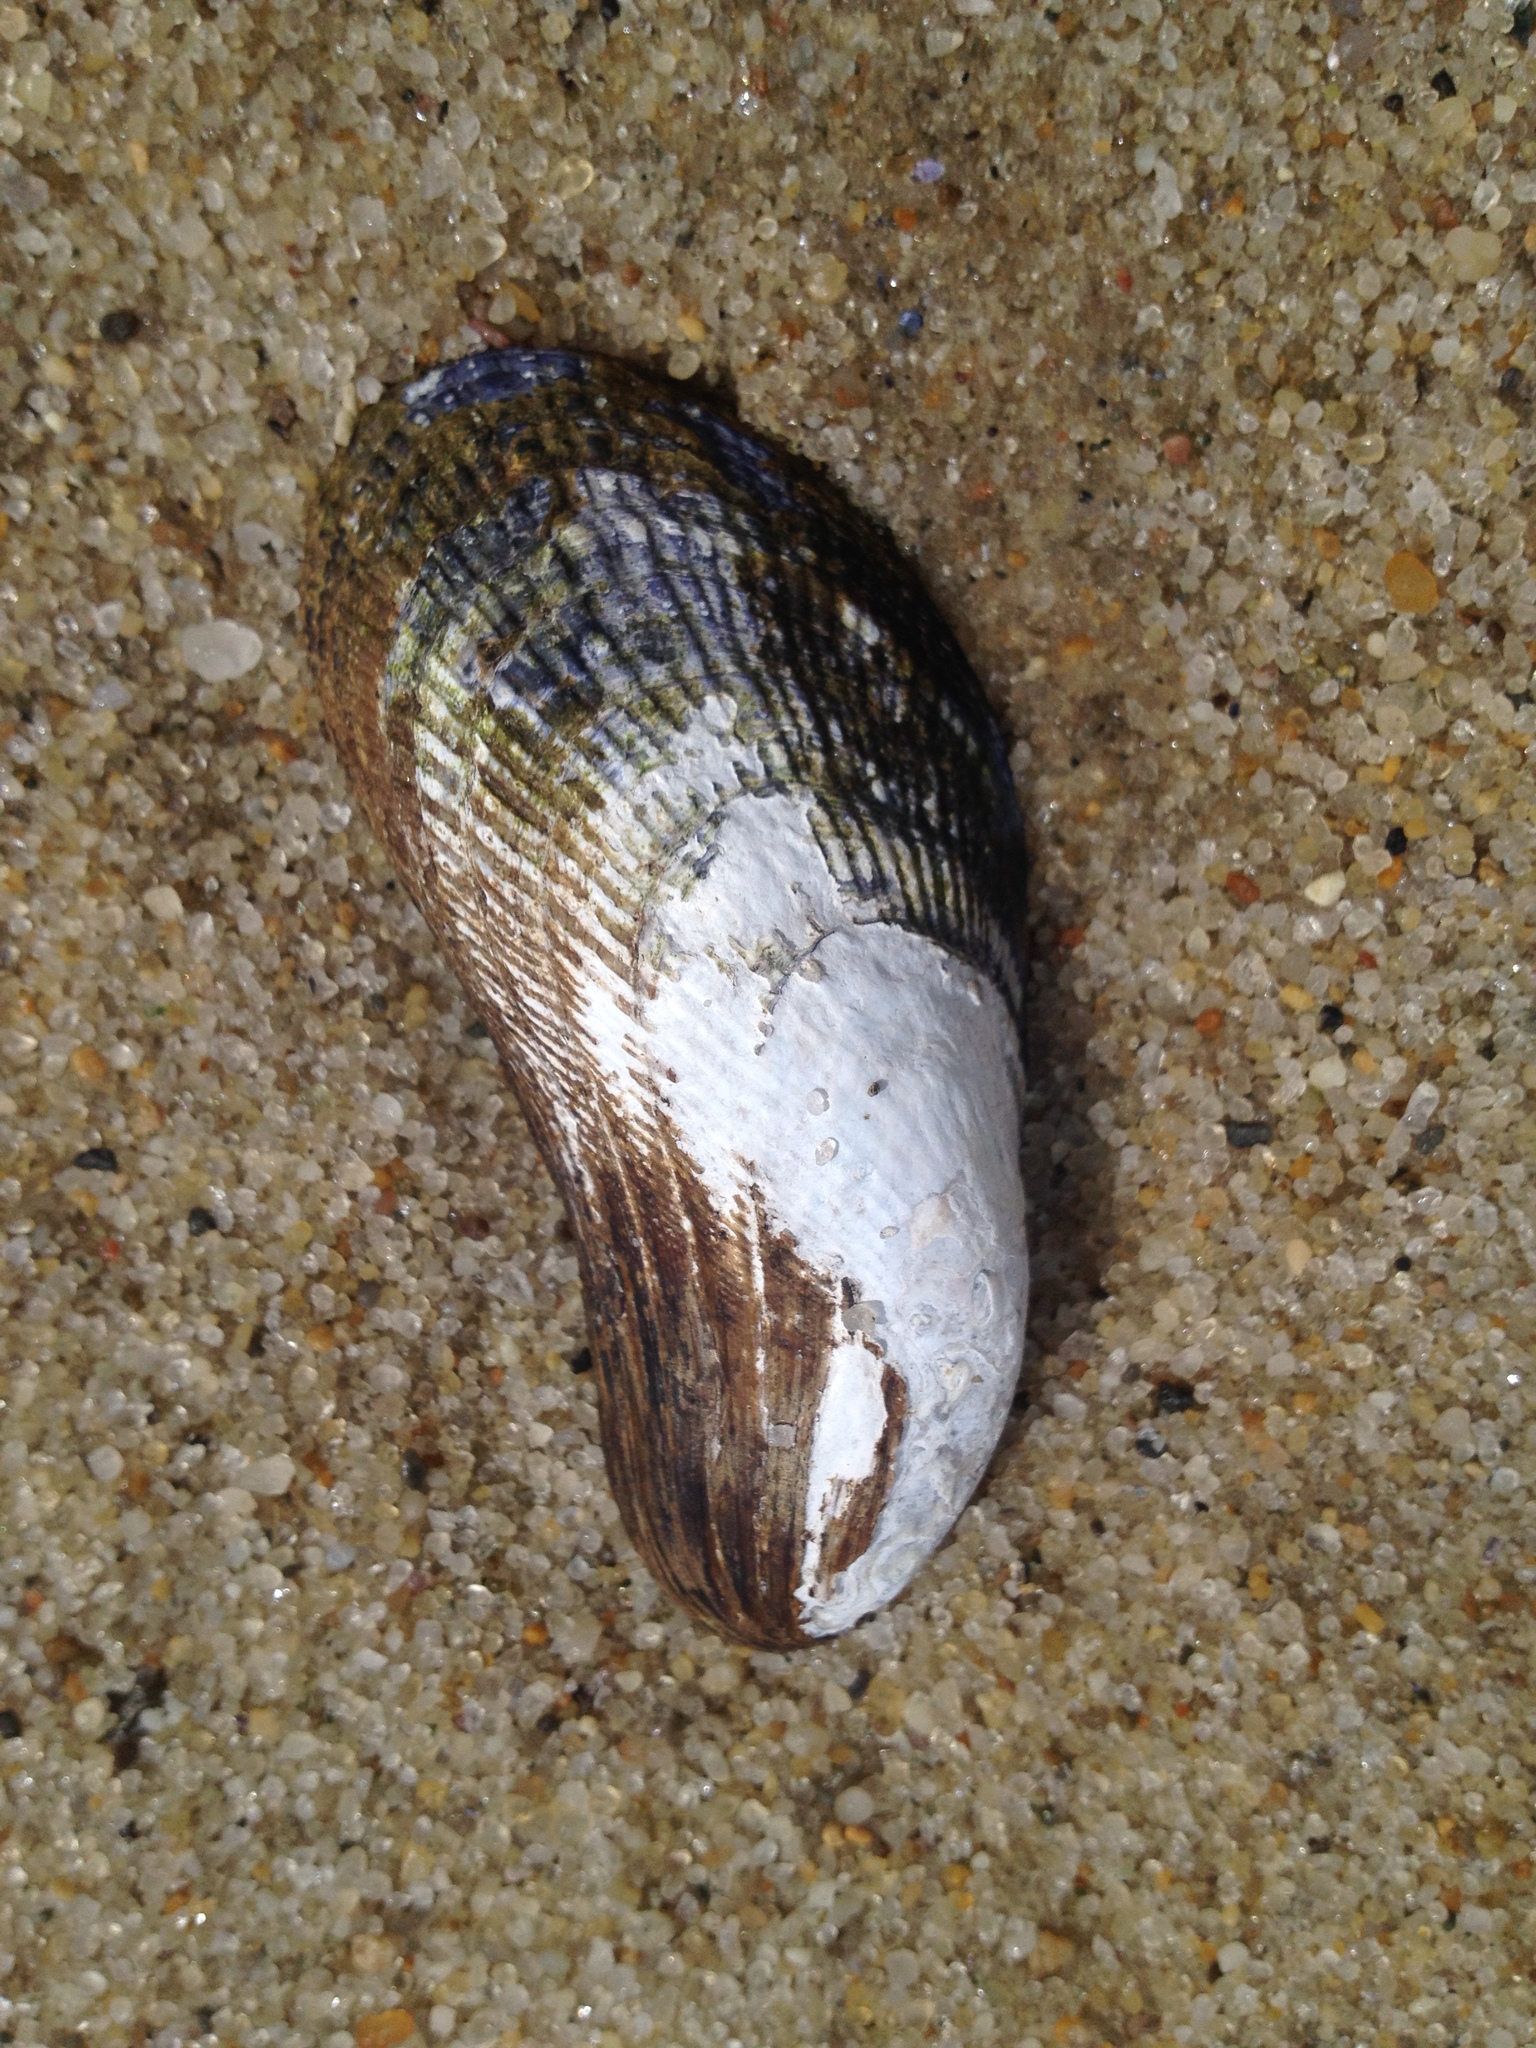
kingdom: Animalia
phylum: Mollusca
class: Bivalvia
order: Mytilida
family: Mytilidae
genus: Geukensia
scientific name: Geukensia demissa
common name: Ribbed mussel
